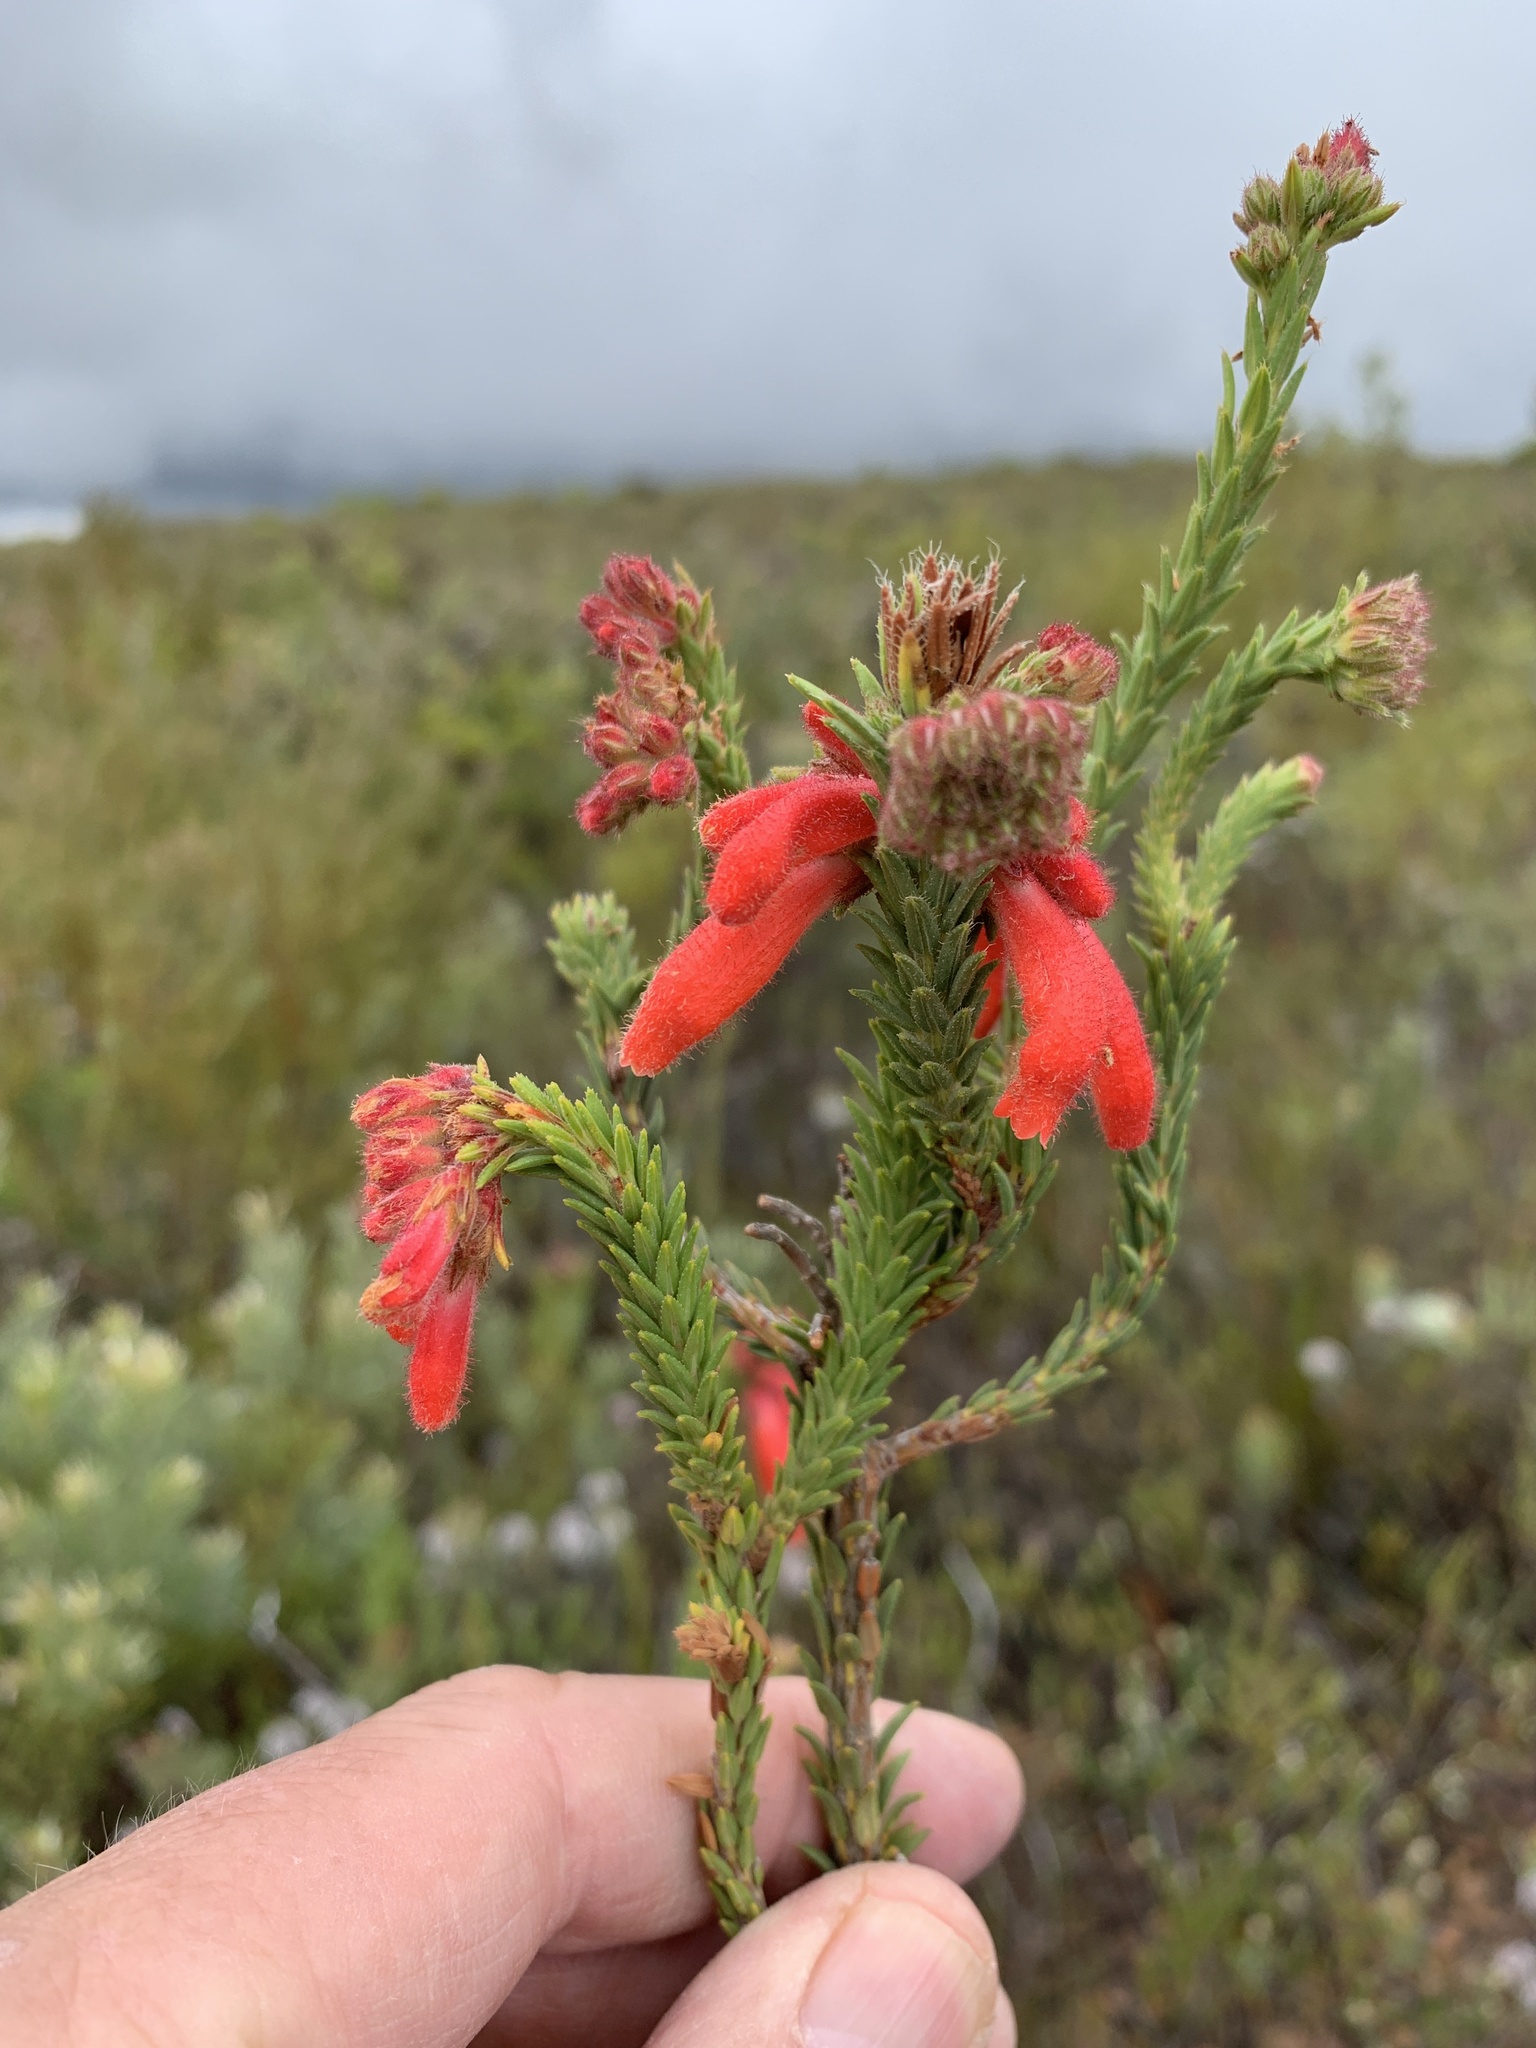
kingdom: Plantae
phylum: Tracheophyta
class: Magnoliopsida
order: Ericales
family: Ericaceae
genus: Erica
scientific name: Erica cerinthoides
